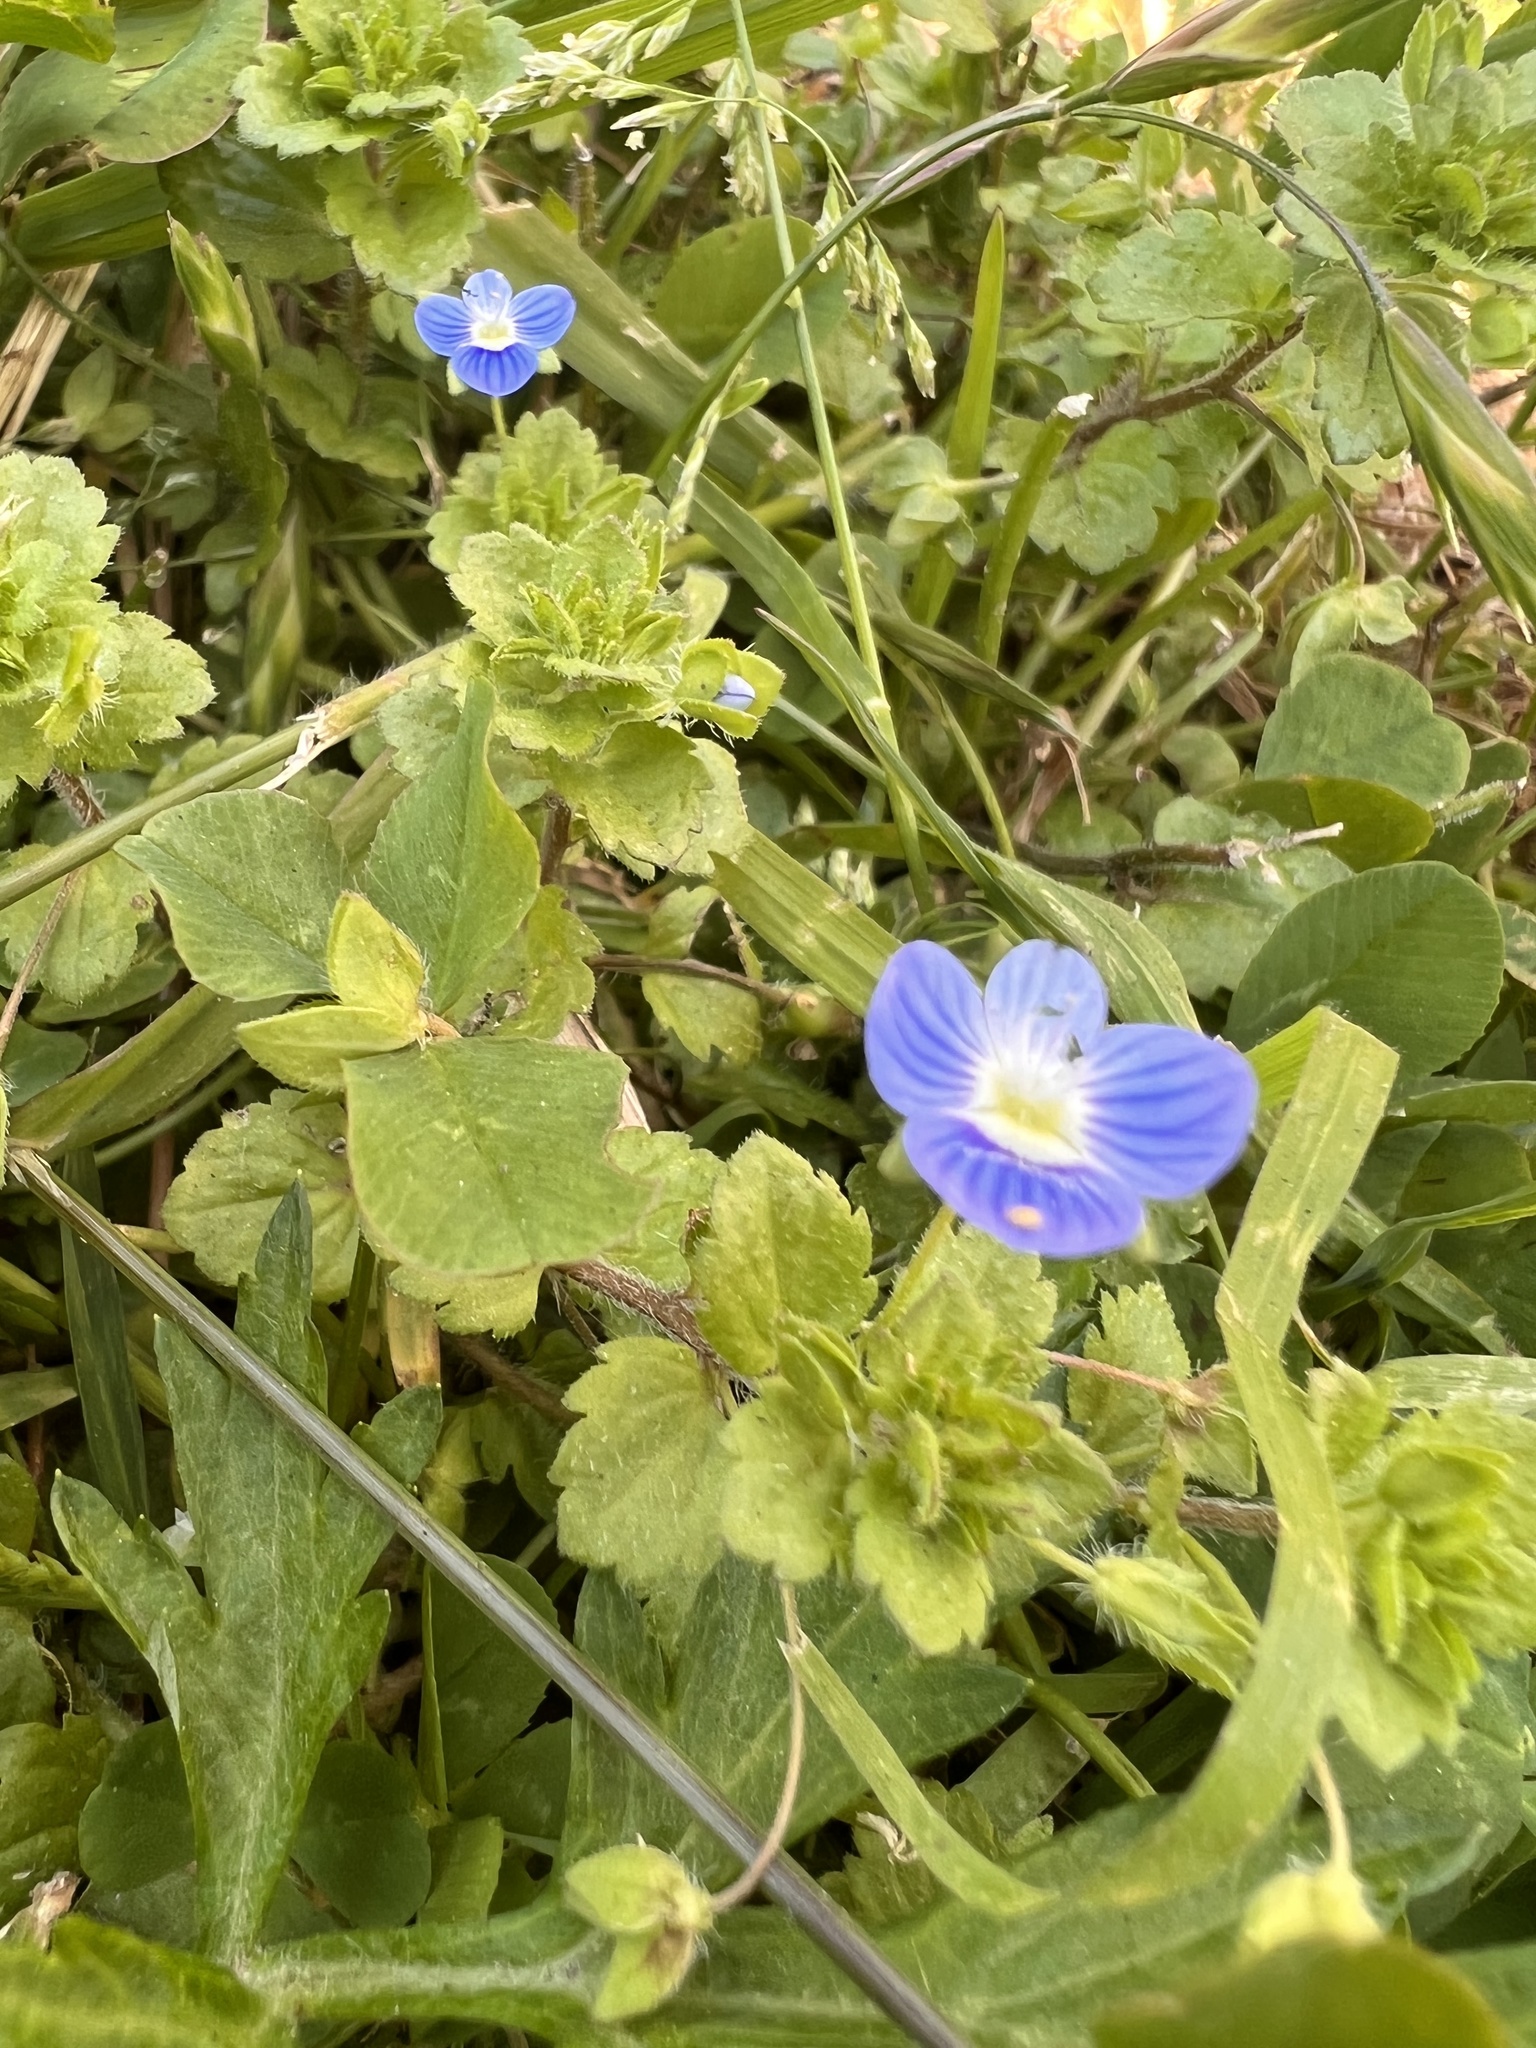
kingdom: Plantae
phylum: Tracheophyta
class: Magnoliopsida
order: Lamiales
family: Plantaginaceae
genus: Veronica
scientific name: Veronica persica
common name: Common field-speedwell
